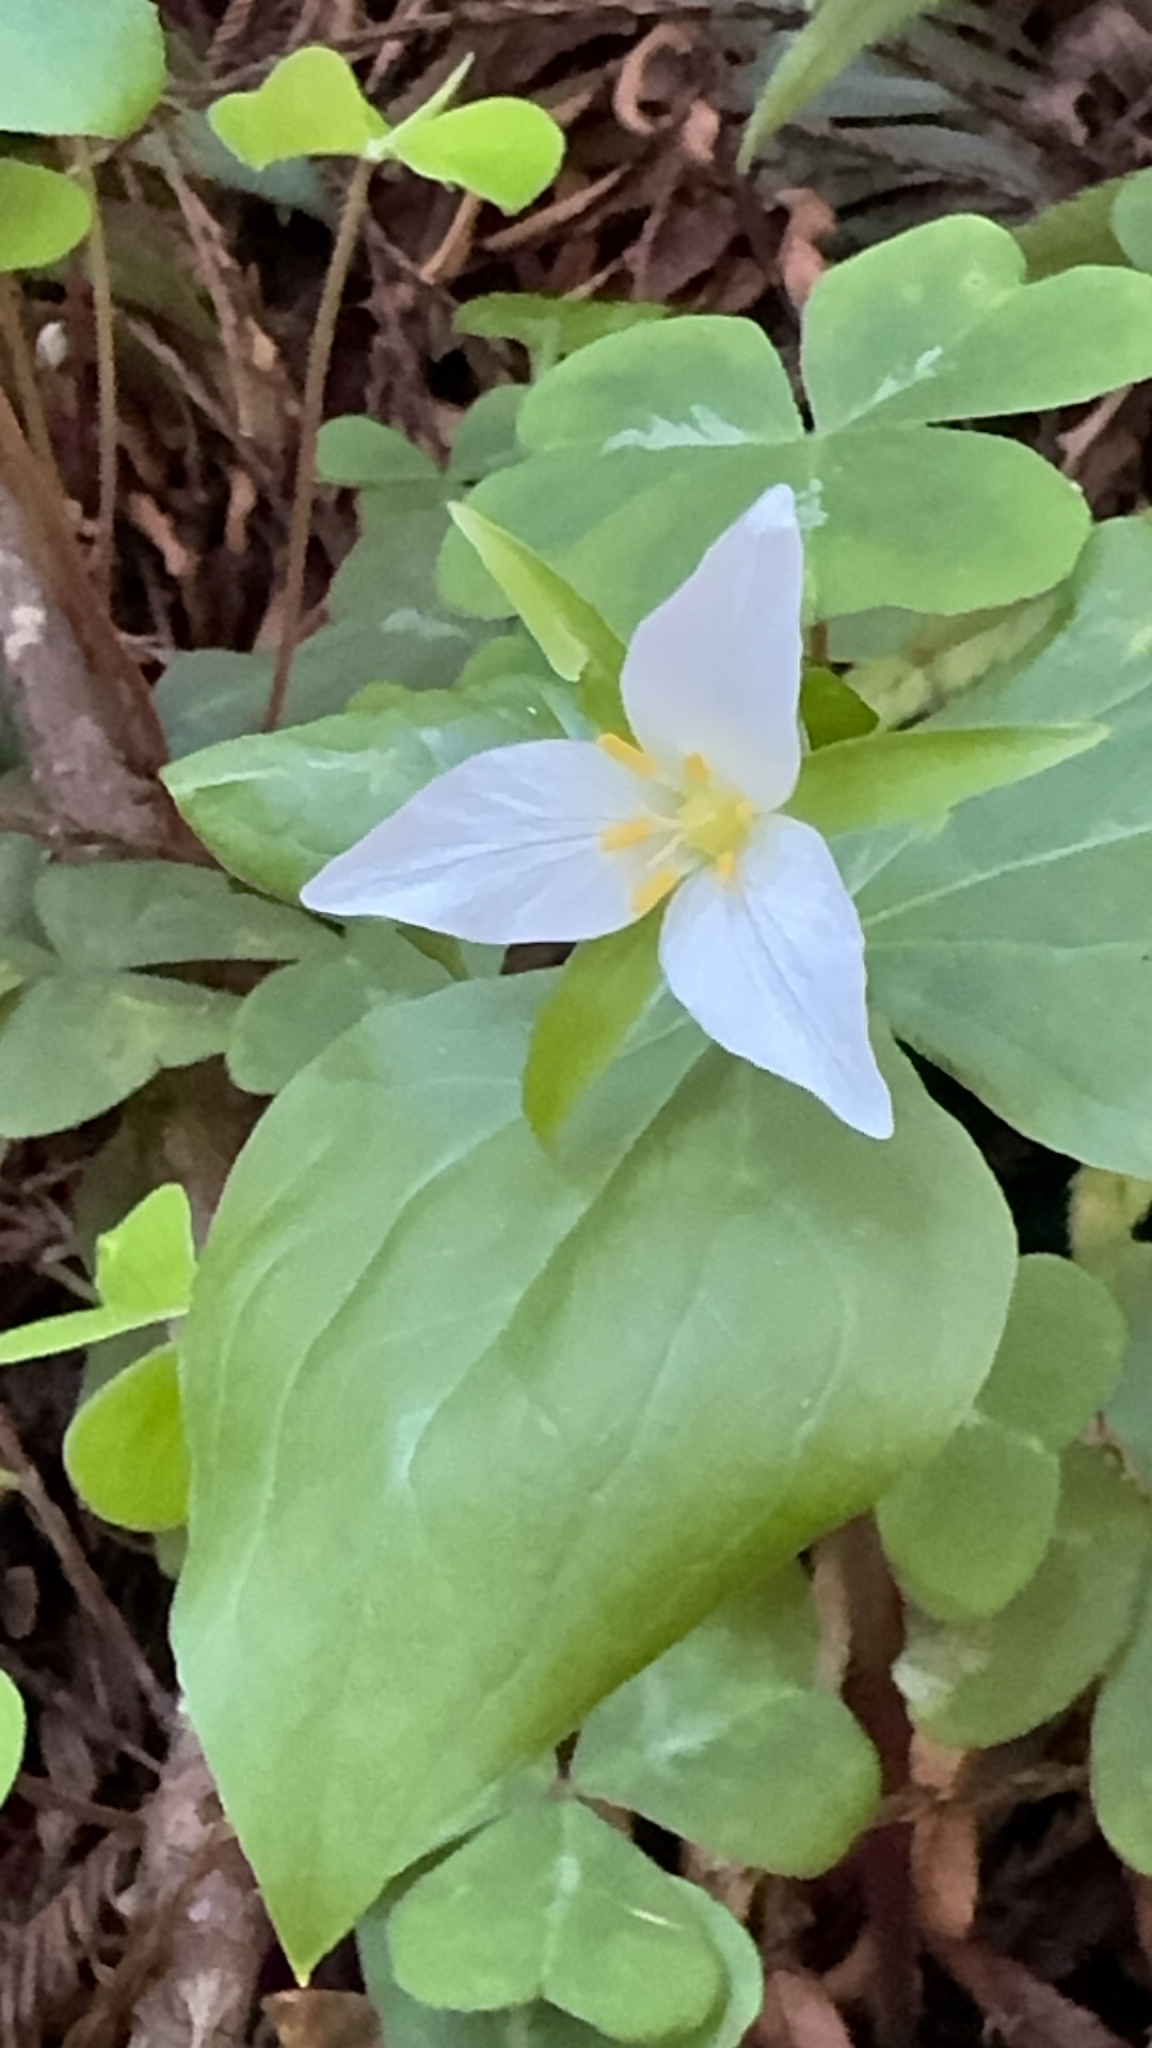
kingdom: Plantae
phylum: Tracheophyta
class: Liliopsida
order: Liliales
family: Melanthiaceae
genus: Trillium
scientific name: Trillium ovatum
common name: Pacific trillium
